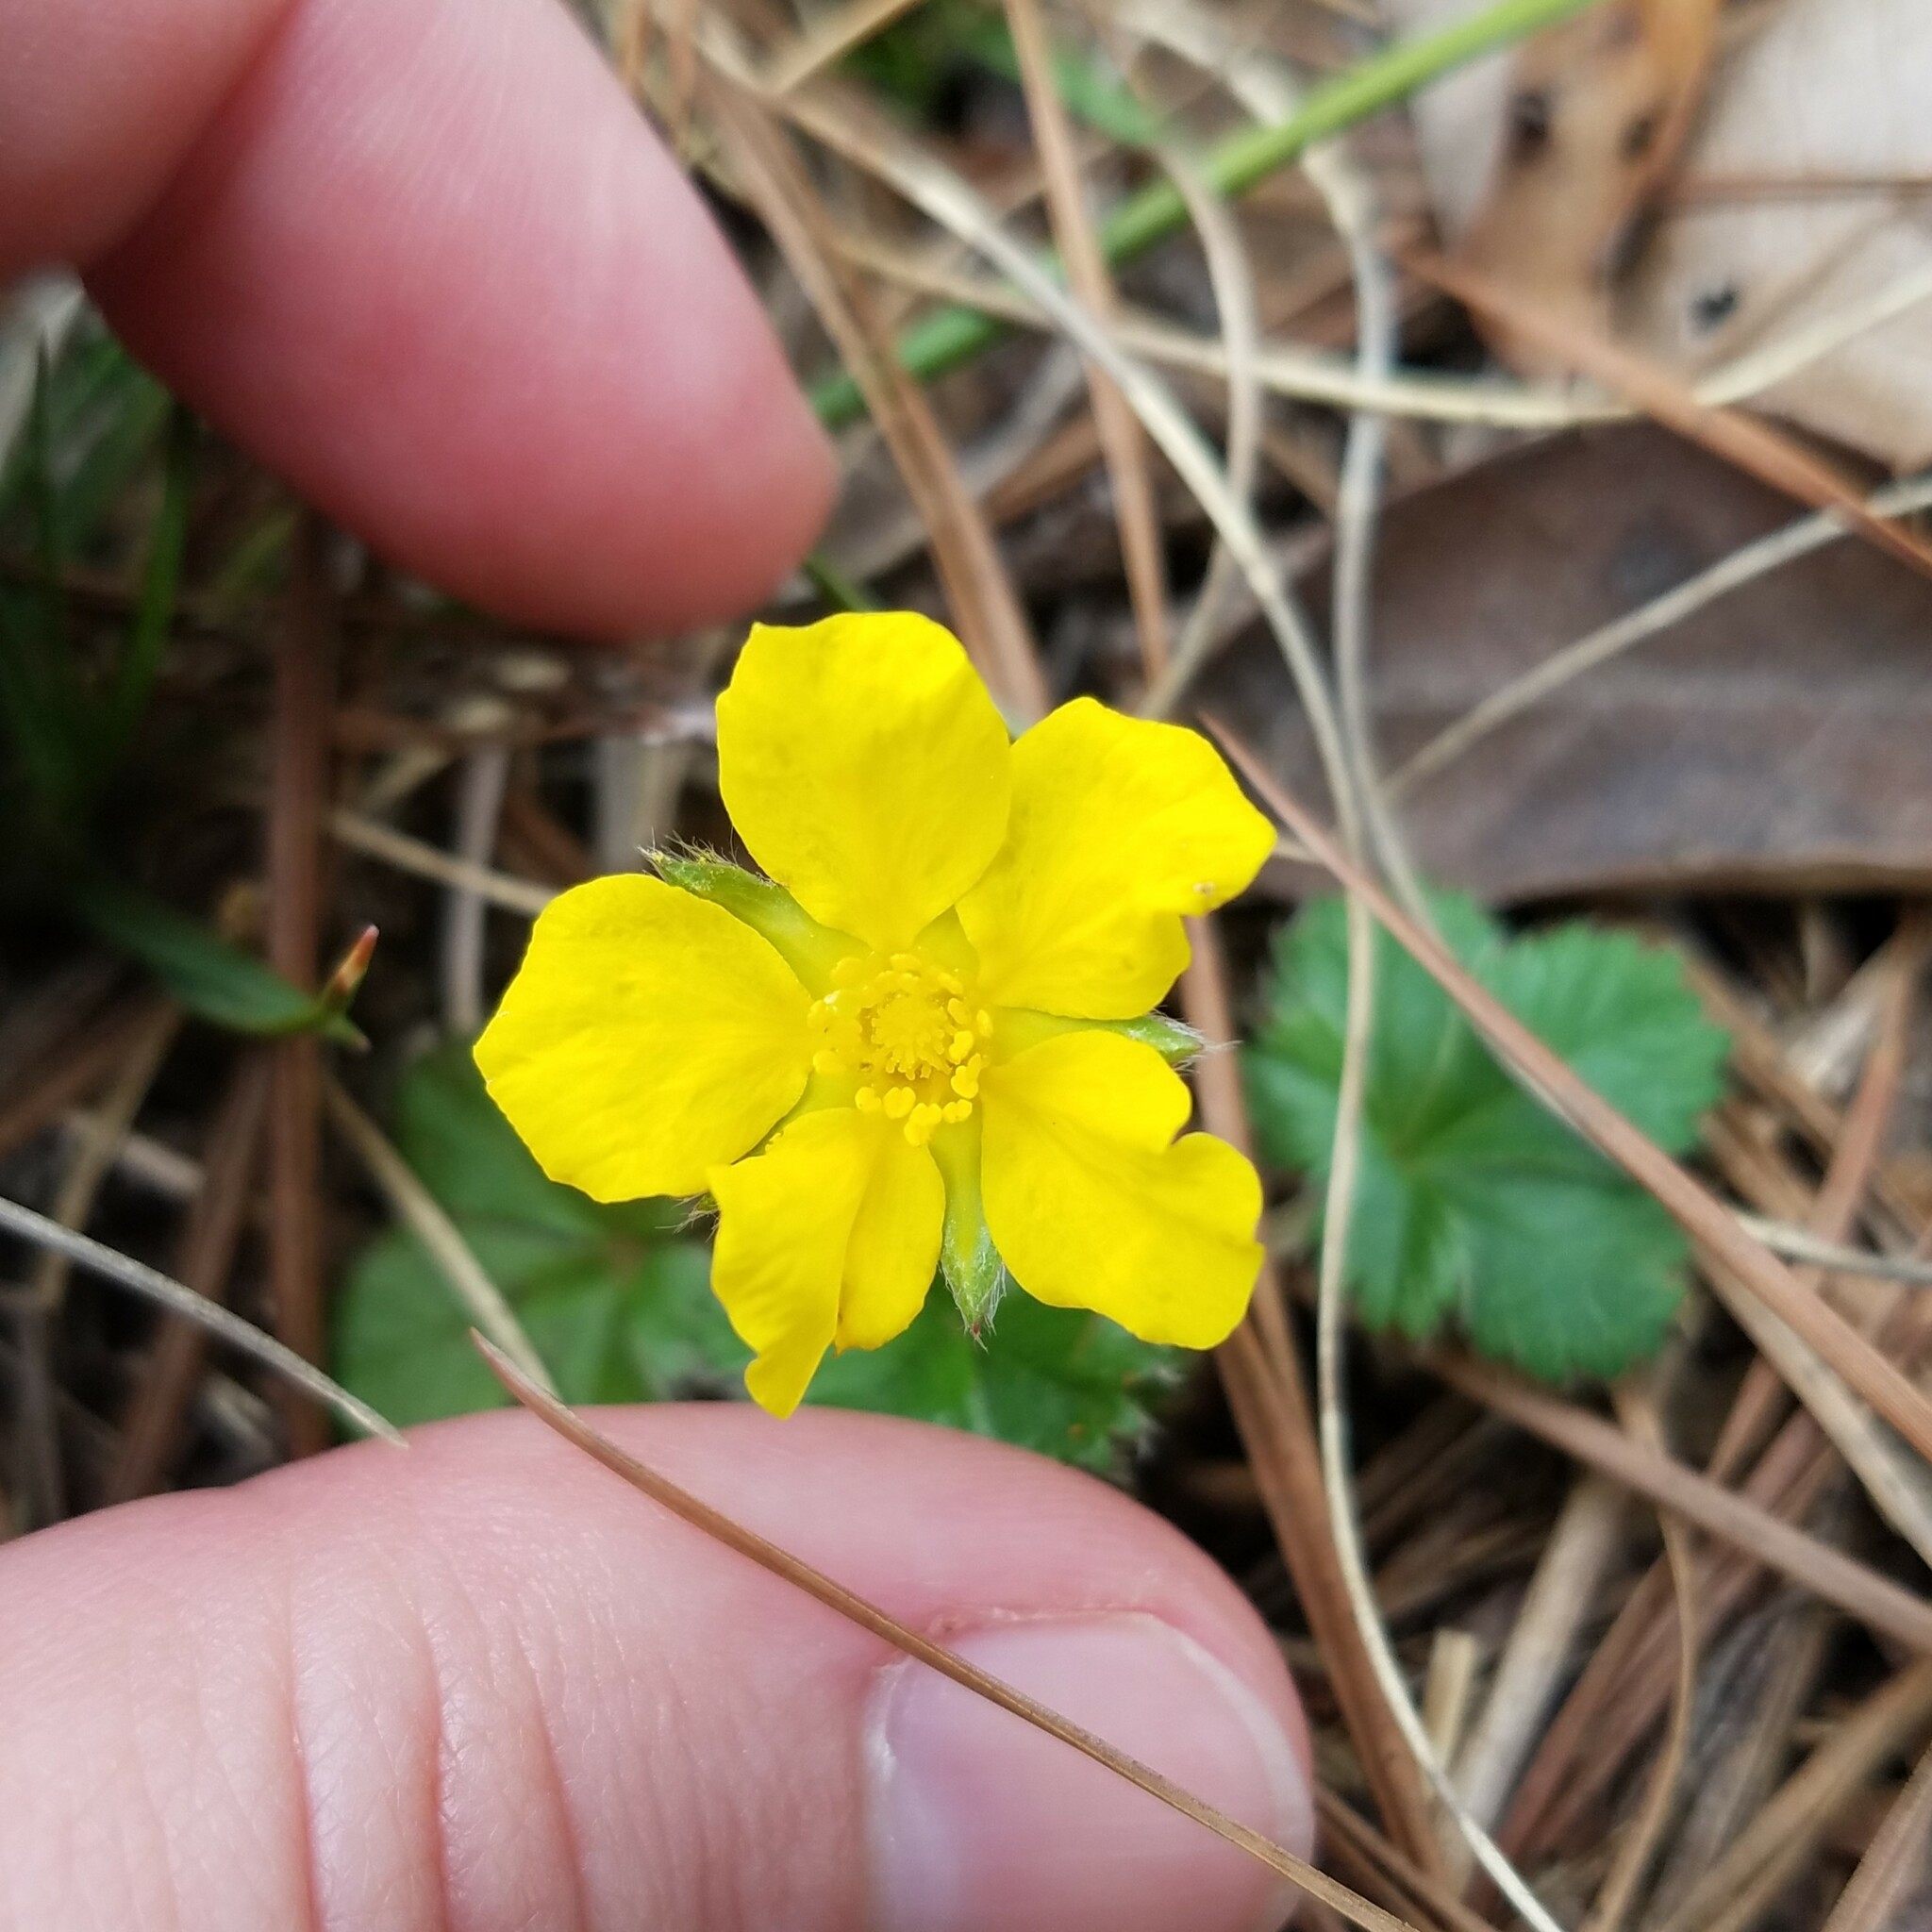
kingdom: Plantae
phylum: Tracheophyta
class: Magnoliopsida
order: Rosales
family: Rosaceae
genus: Potentilla
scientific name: Potentilla canadensis
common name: Canada cinquefoil
